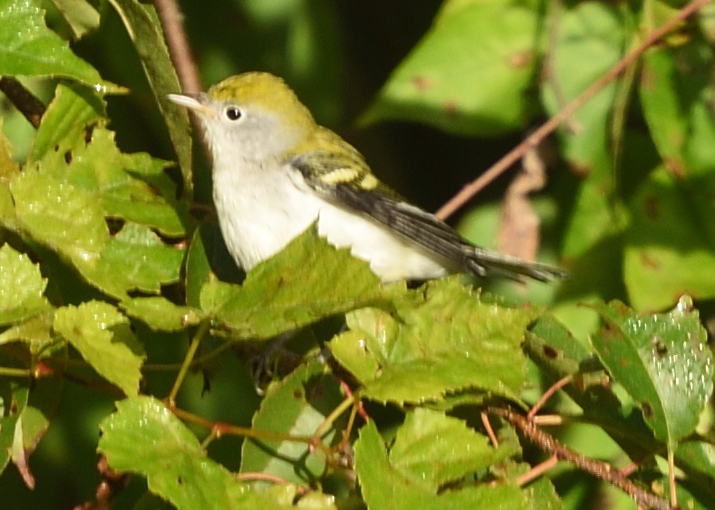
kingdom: Animalia
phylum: Chordata
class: Aves
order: Passeriformes
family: Parulidae
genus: Setophaga
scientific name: Setophaga pensylvanica
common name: Chestnut-sided warbler
